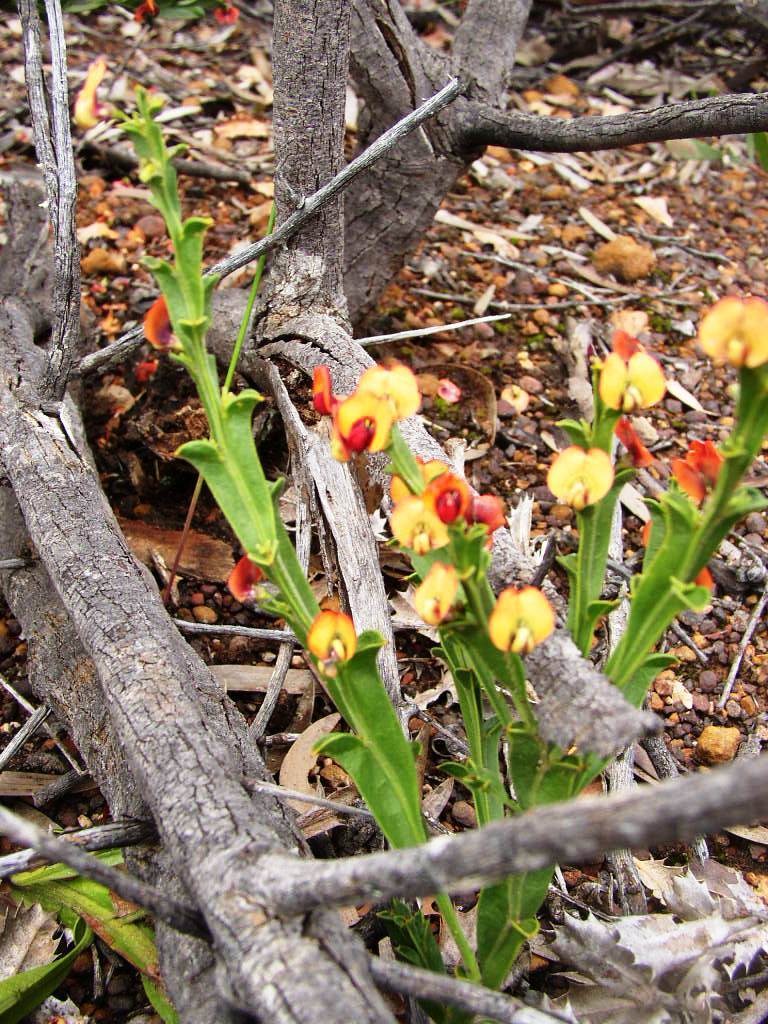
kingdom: Plantae
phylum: Tracheophyta
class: Magnoliopsida
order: Fabales
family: Fabaceae
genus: Daviesia
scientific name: Daviesia trigonophylla
